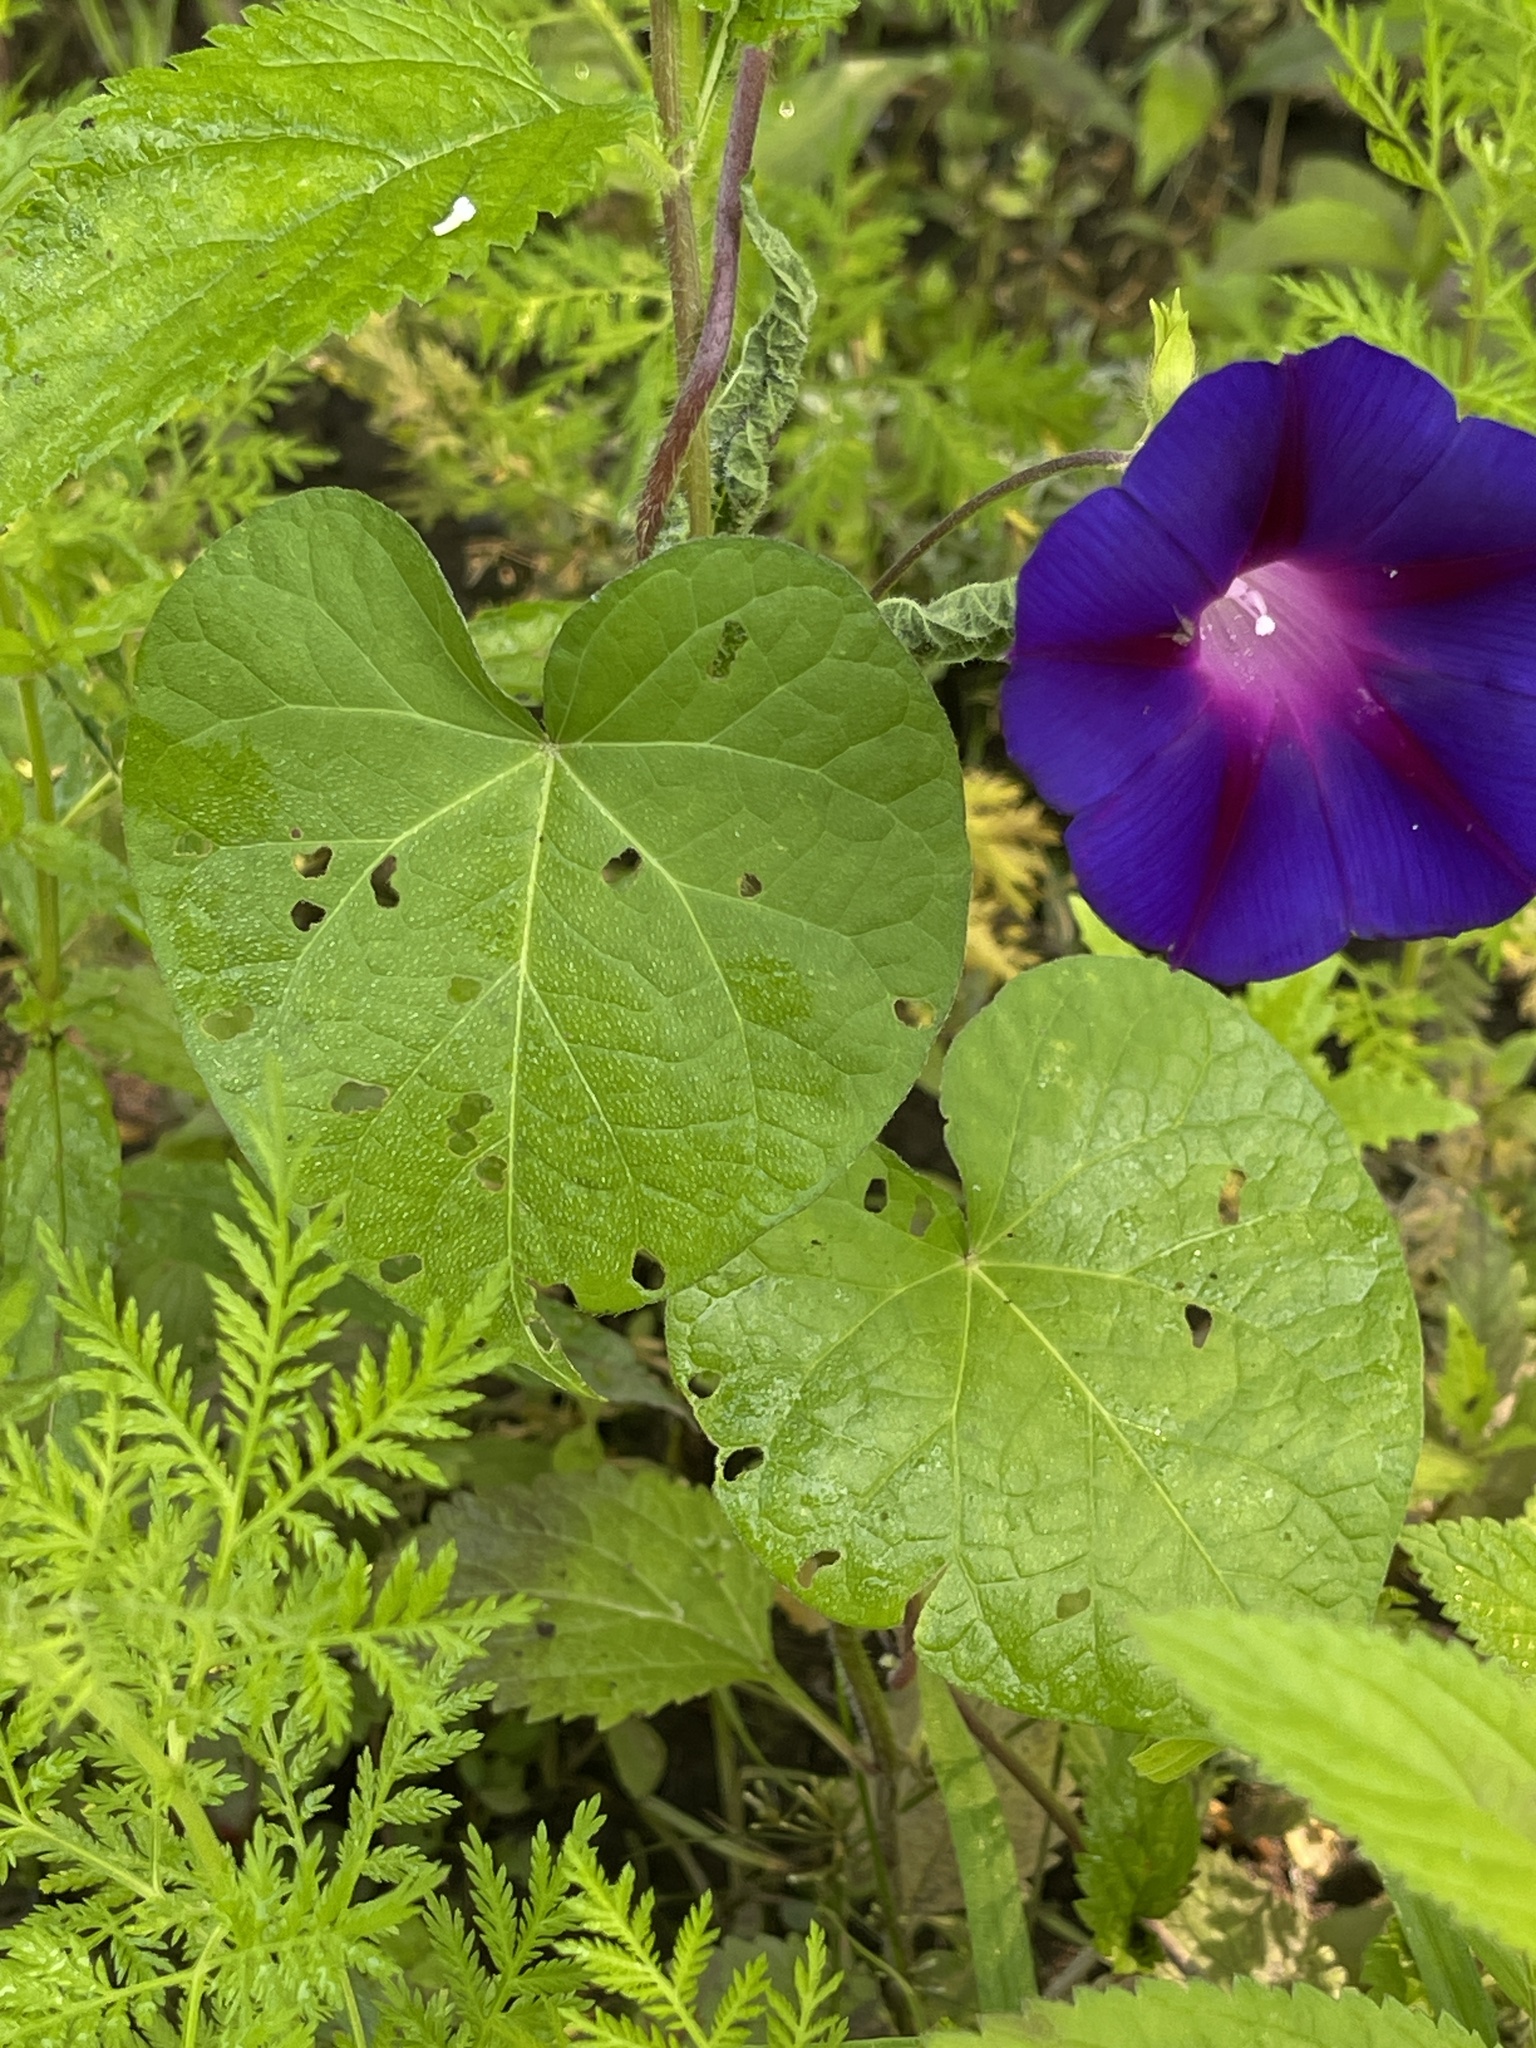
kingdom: Plantae
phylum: Tracheophyta
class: Magnoliopsida
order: Solanales
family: Convolvulaceae
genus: Ipomoea
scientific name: Ipomoea purpurea
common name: Common morning-glory
